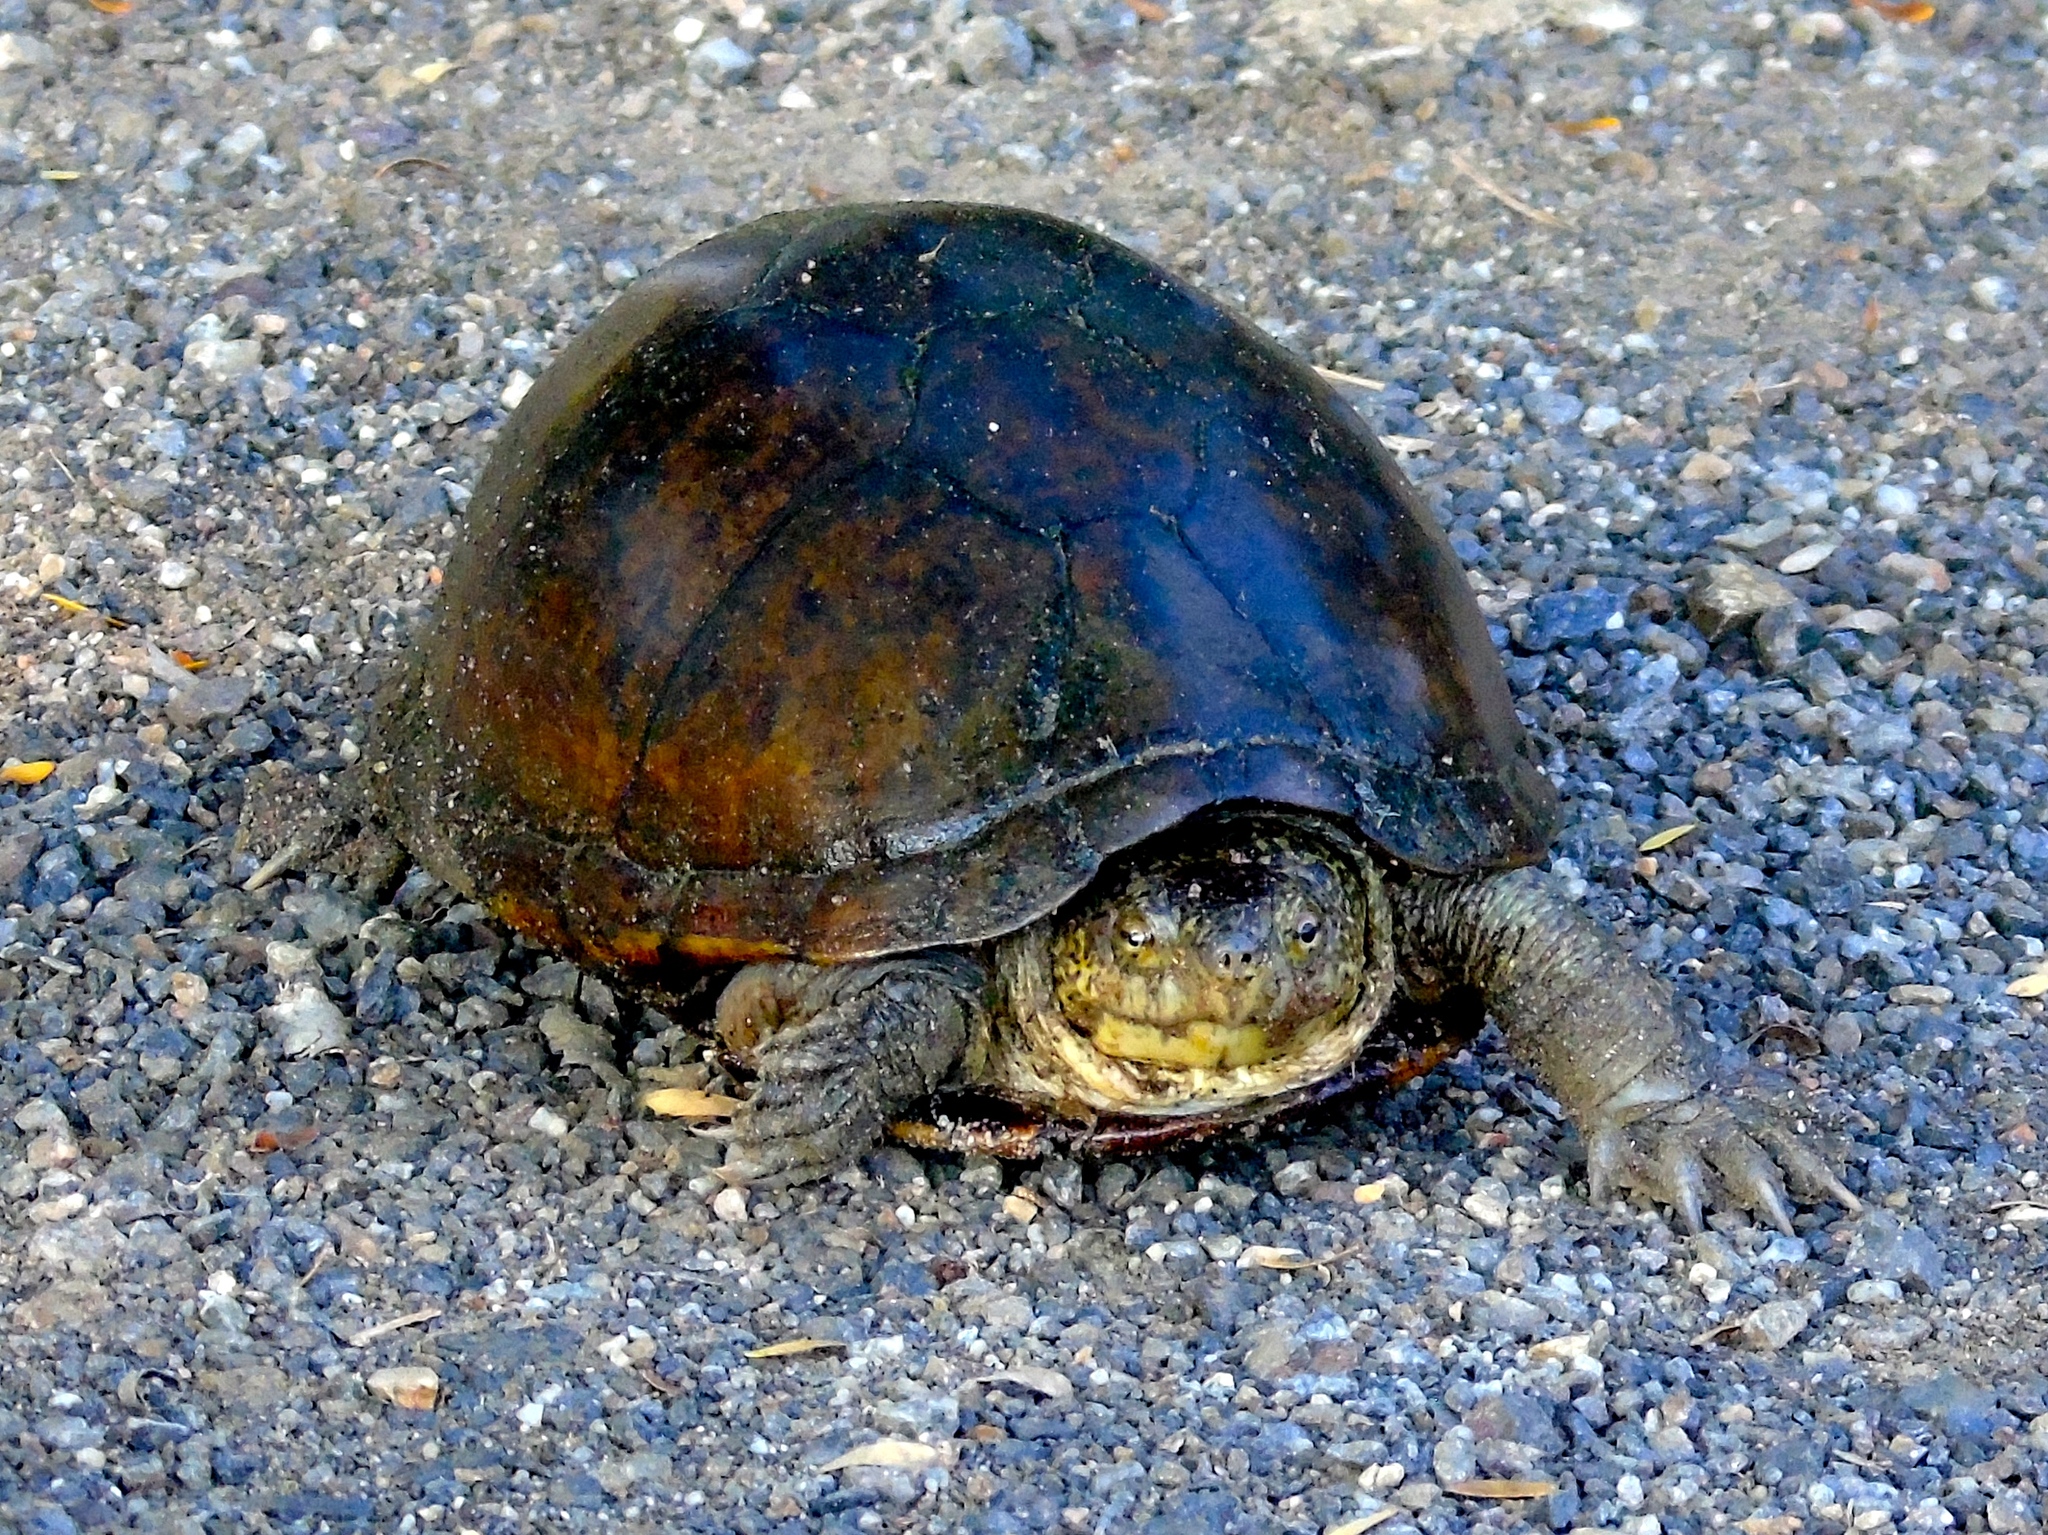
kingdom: Animalia
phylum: Chordata
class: Testudines
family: Kinosternidae
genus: Kinosternon
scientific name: Kinosternon integrum
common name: Mexican mud turtle
